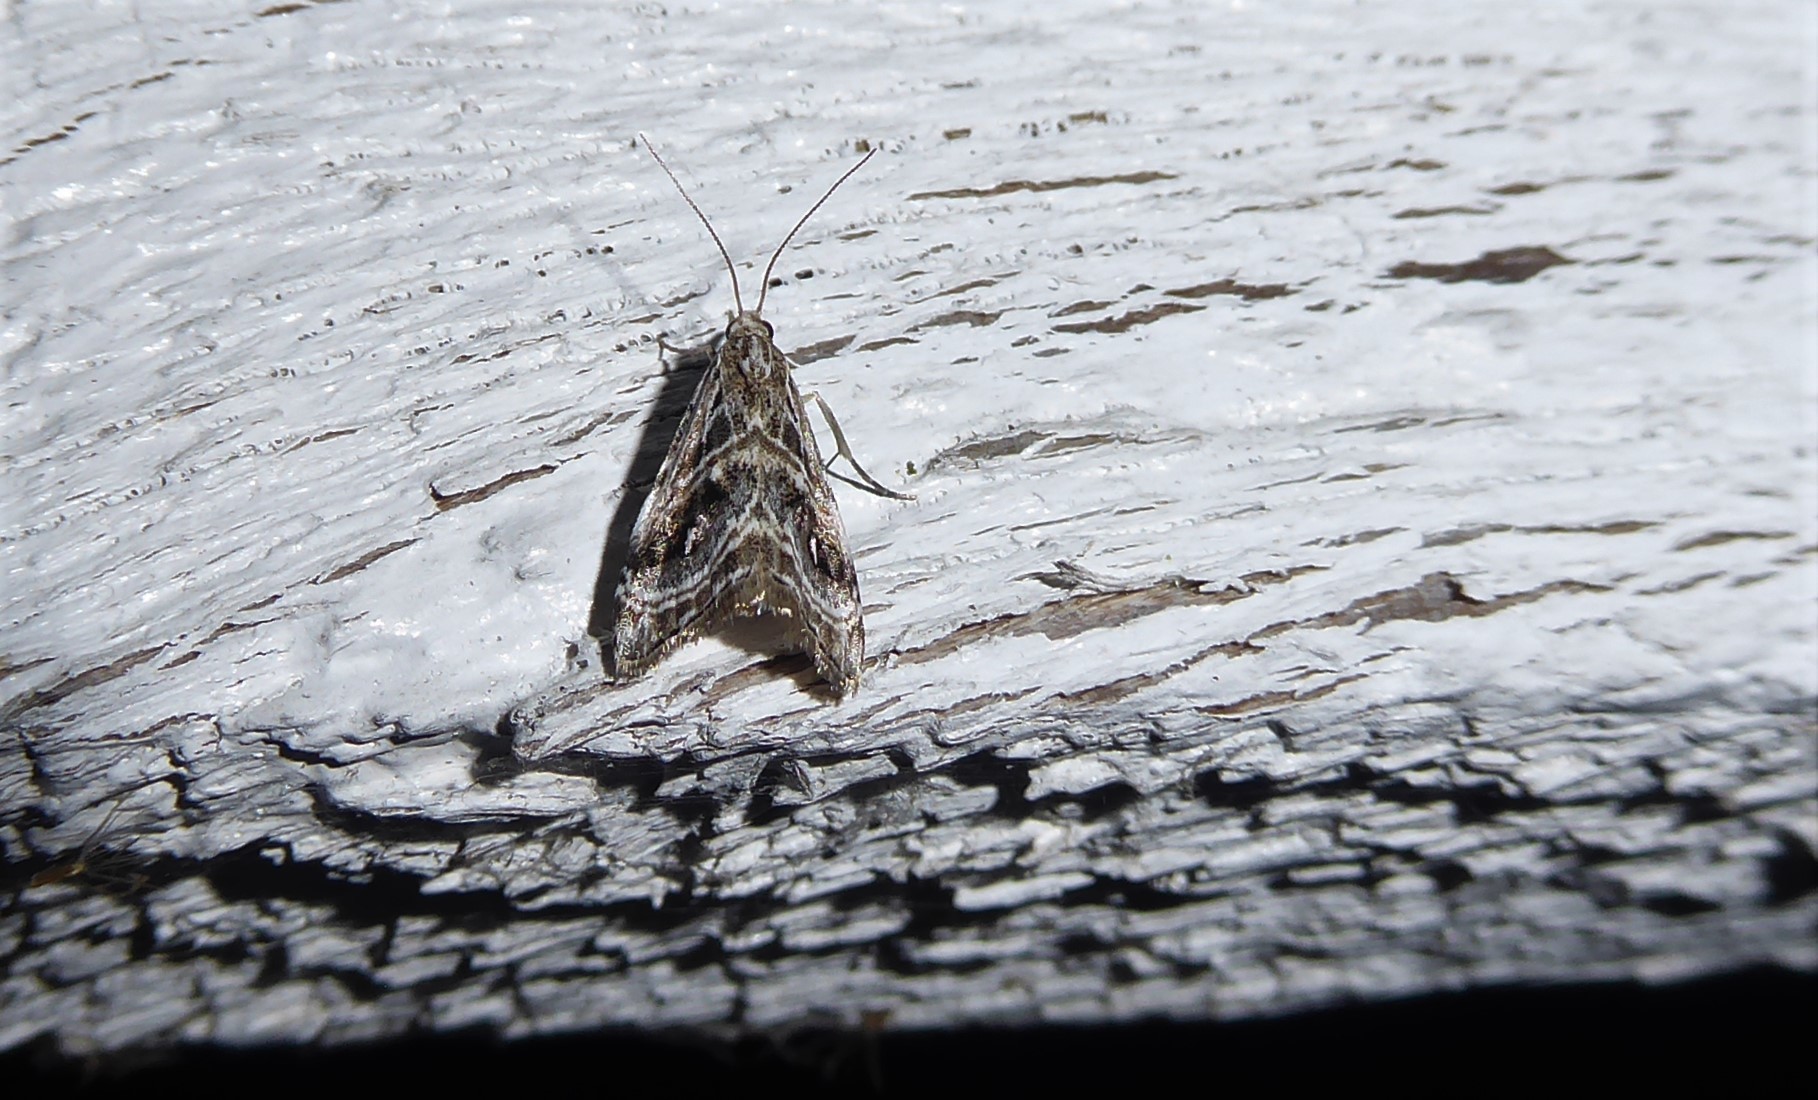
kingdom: Animalia
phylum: Arthropoda
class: Insecta
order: Lepidoptera
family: Crambidae
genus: Gadira
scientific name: Gadira acerella
